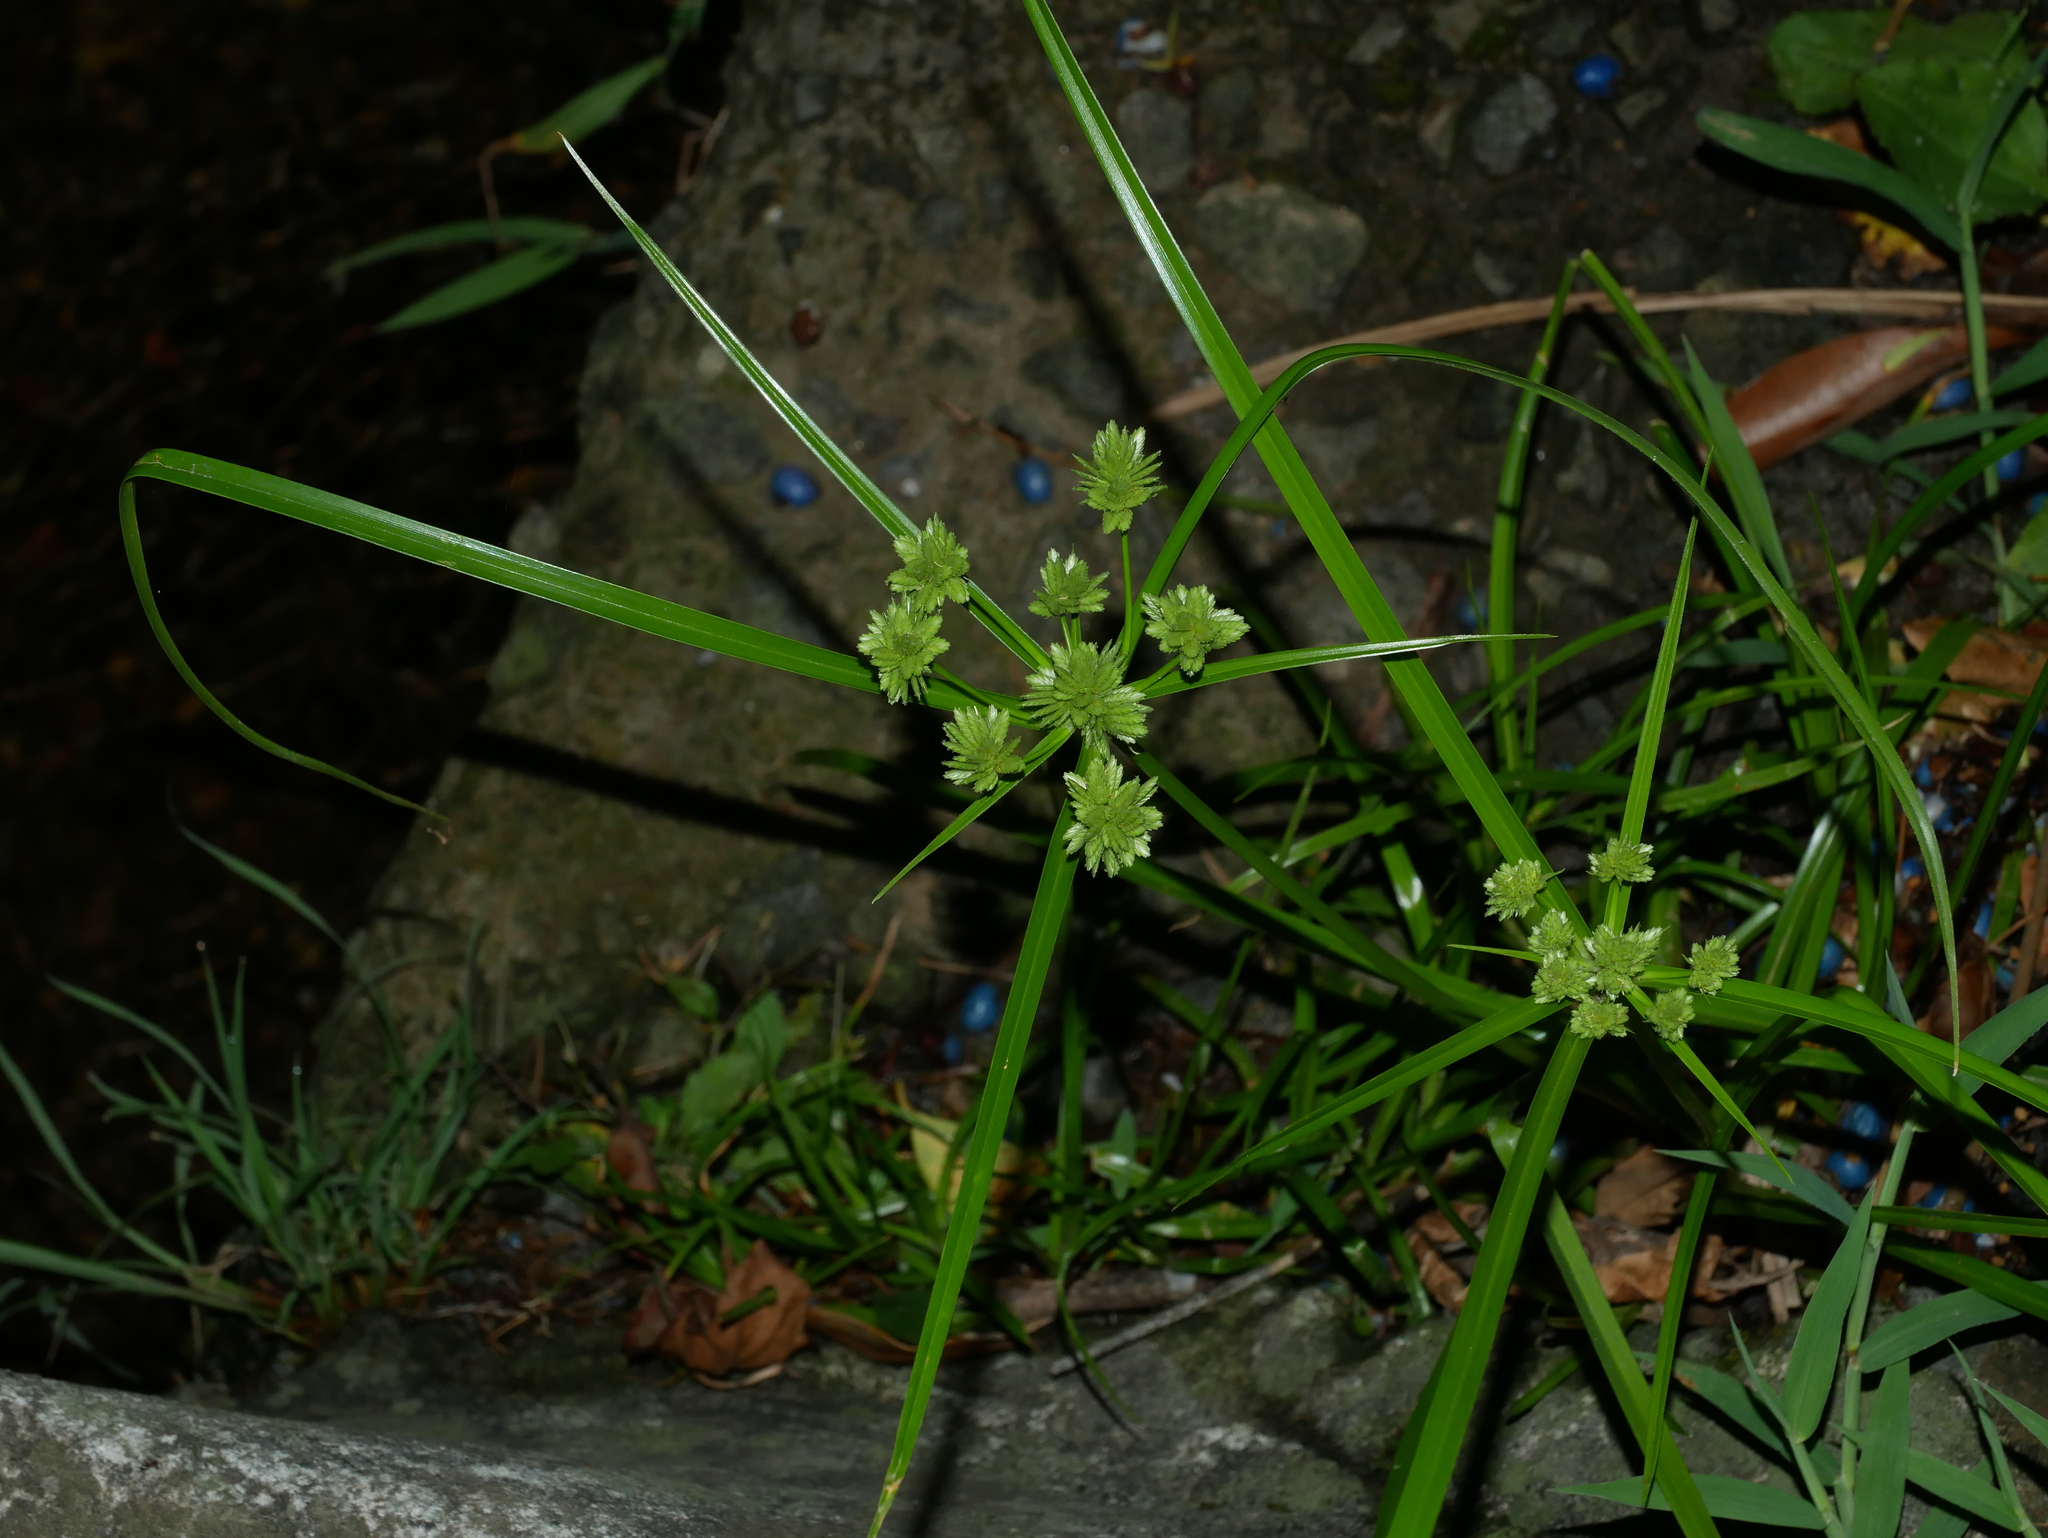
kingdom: Plantae
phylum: Tracheophyta
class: Liliopsida
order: Poales
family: Cyperaceae
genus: Cyperus
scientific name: Cyperus eragrostis
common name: Tall flatsedge
